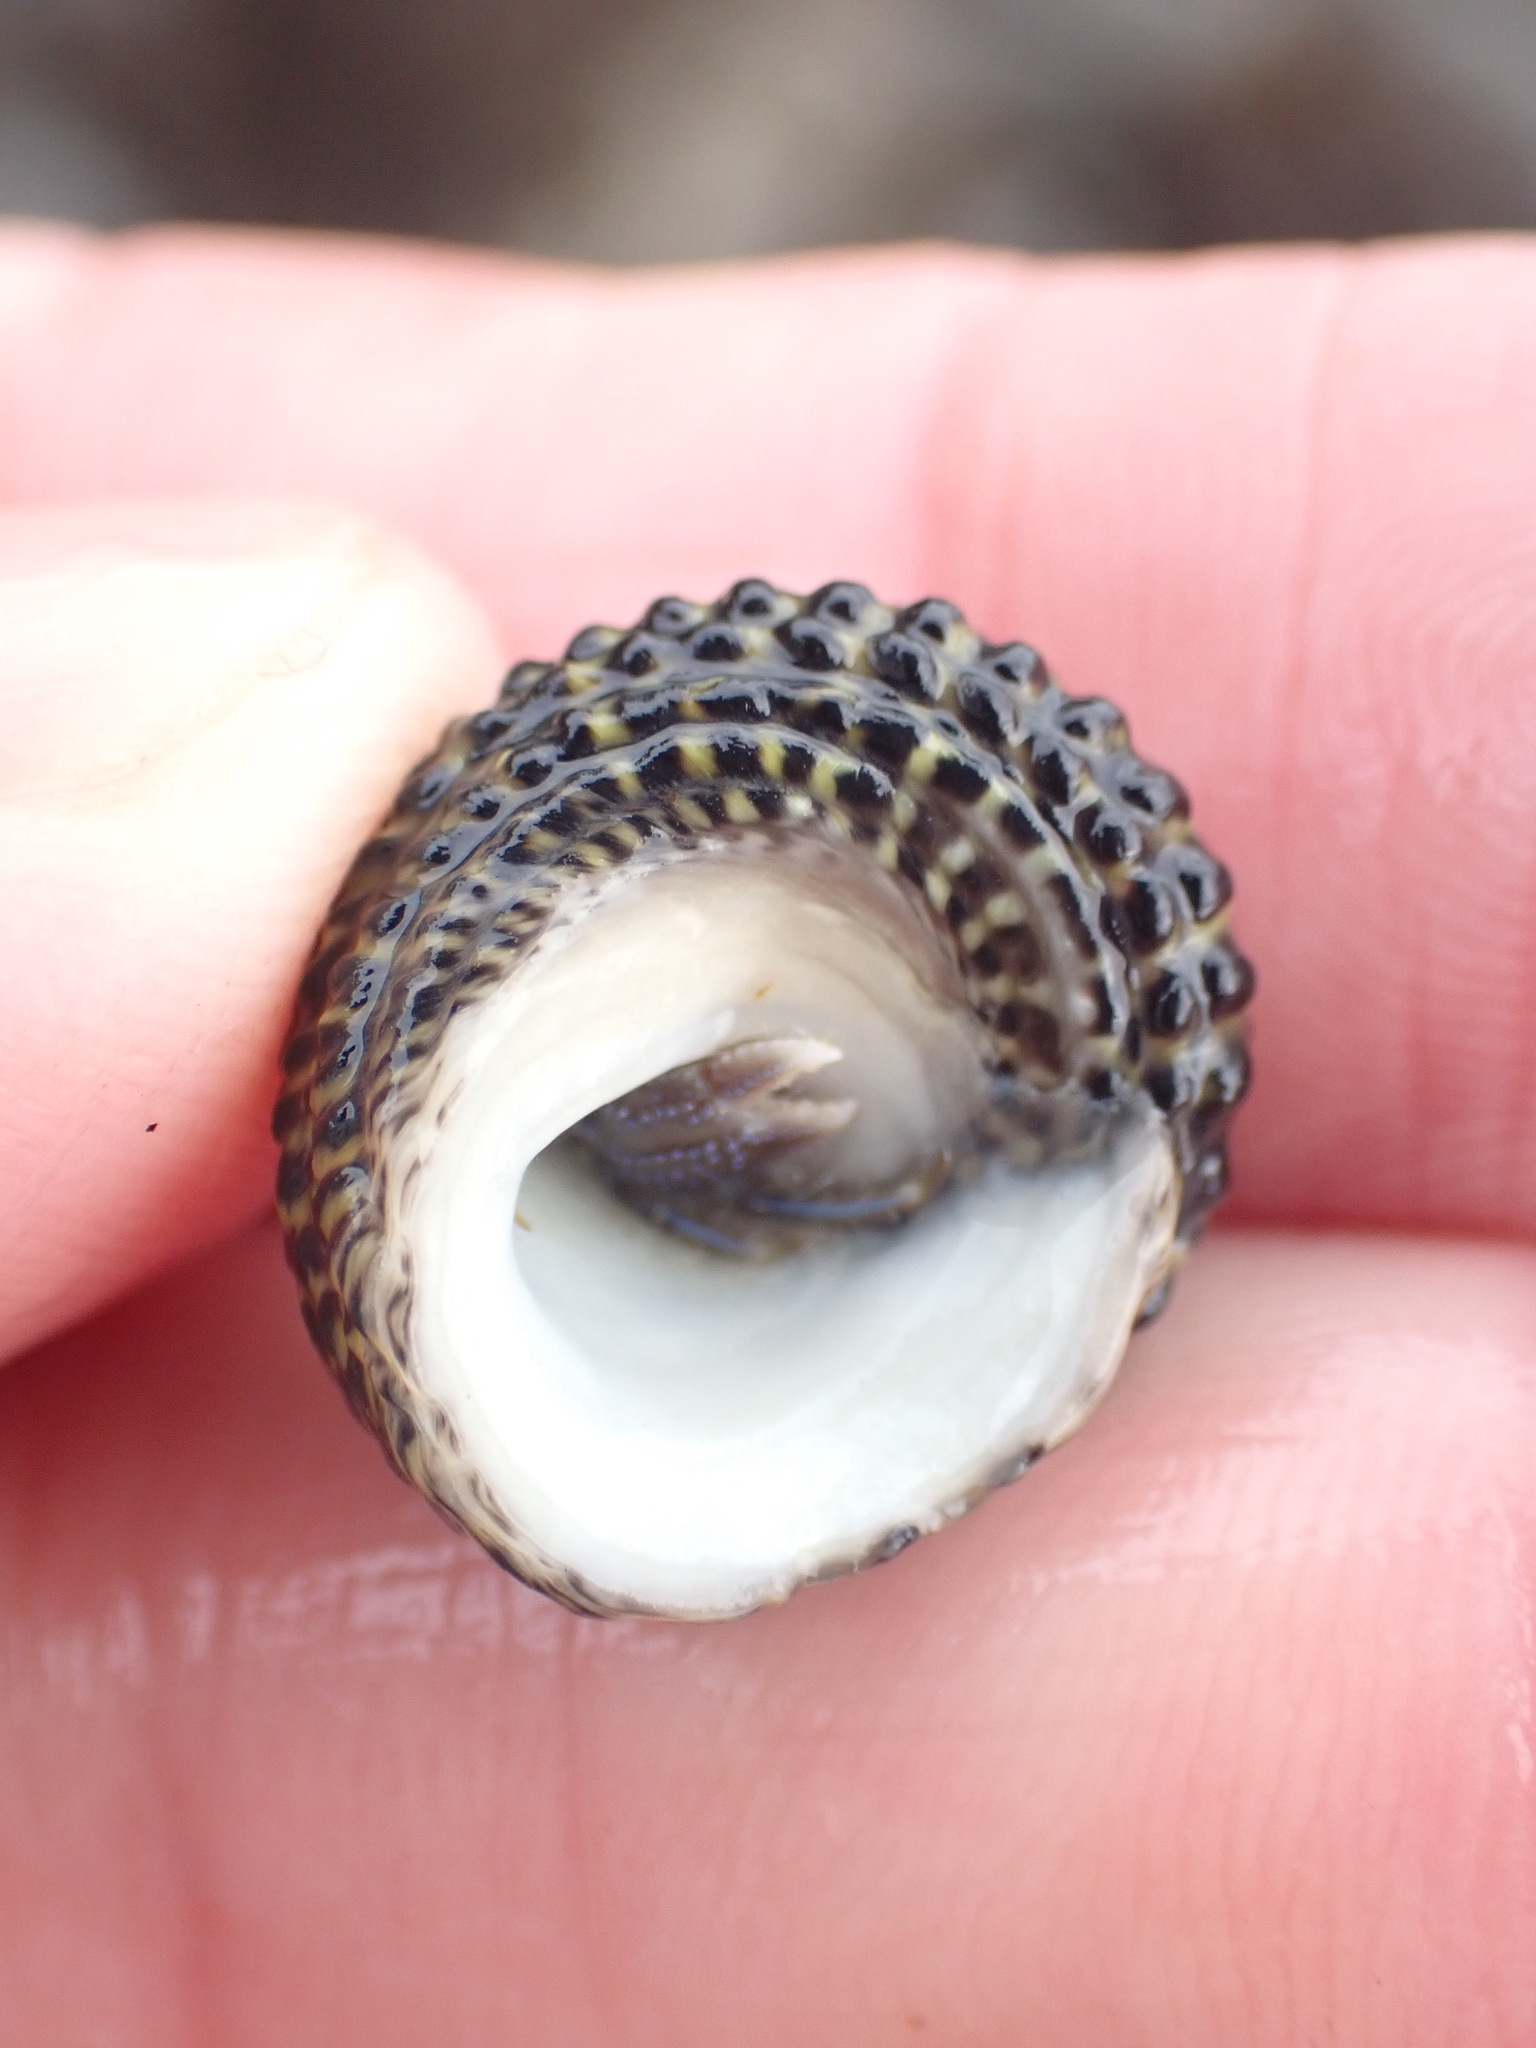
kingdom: Animalia
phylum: Mollusca
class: Gastropoda
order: Trochida
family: Trochidae
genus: Diloma
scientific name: Diloma bicanaliculatum
